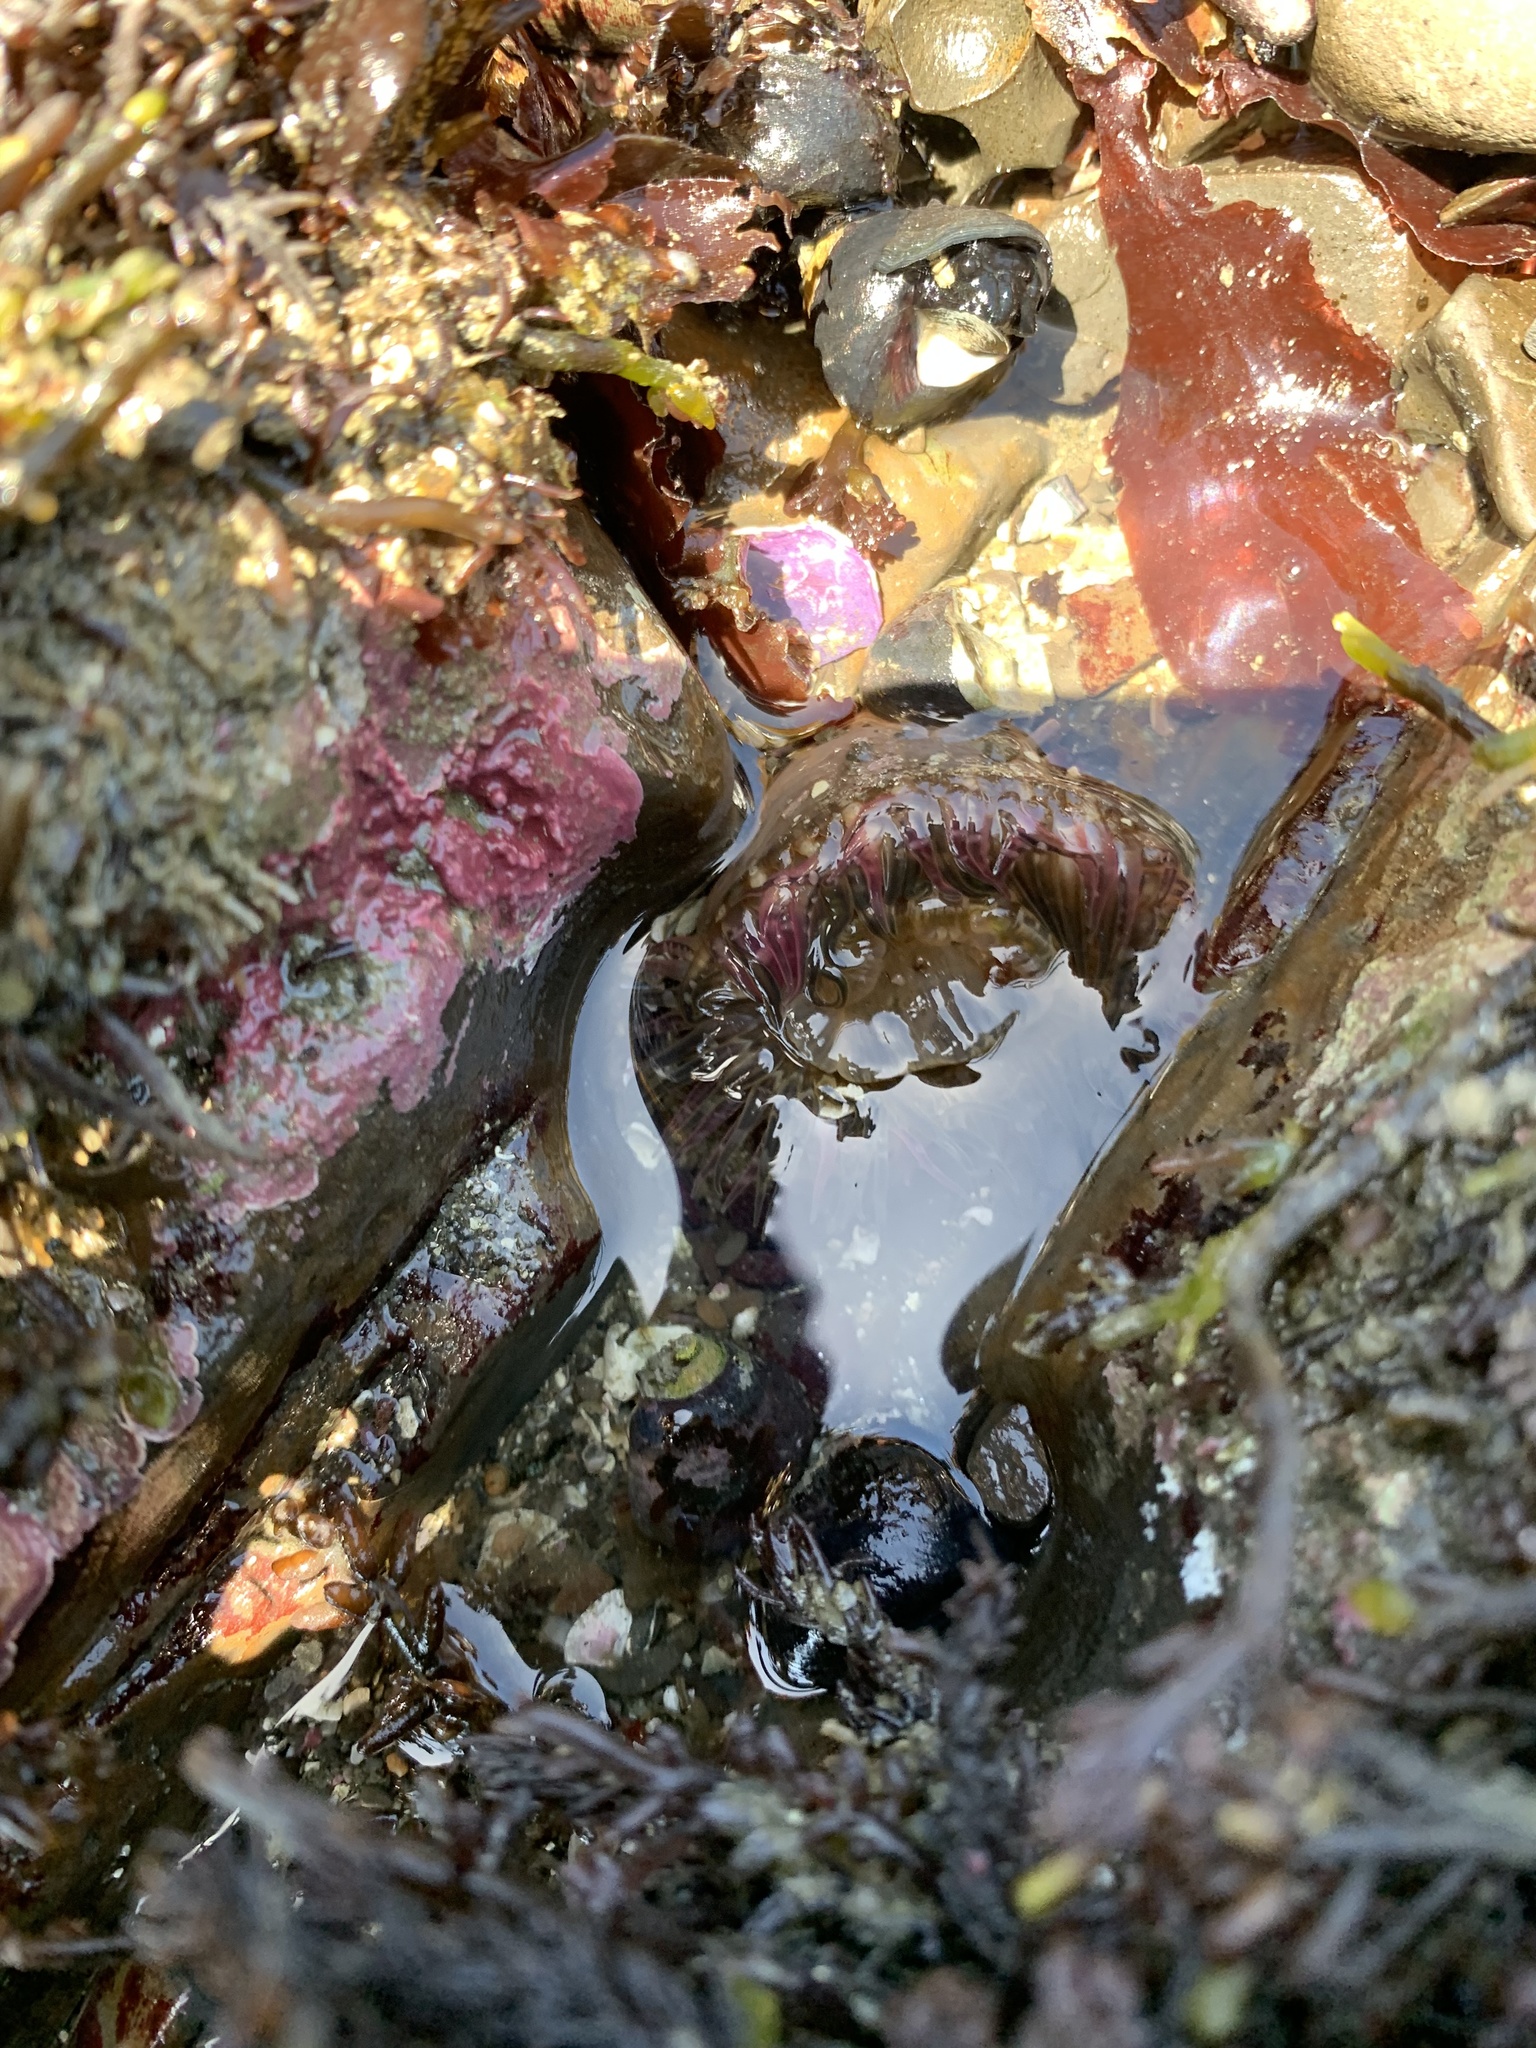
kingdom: Animalia
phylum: Cnidaria
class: Anthozoa
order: Actiniaria
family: Actiniidae
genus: Anthopleura
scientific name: Anthopleura elegantissima
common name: Clonal anemone
